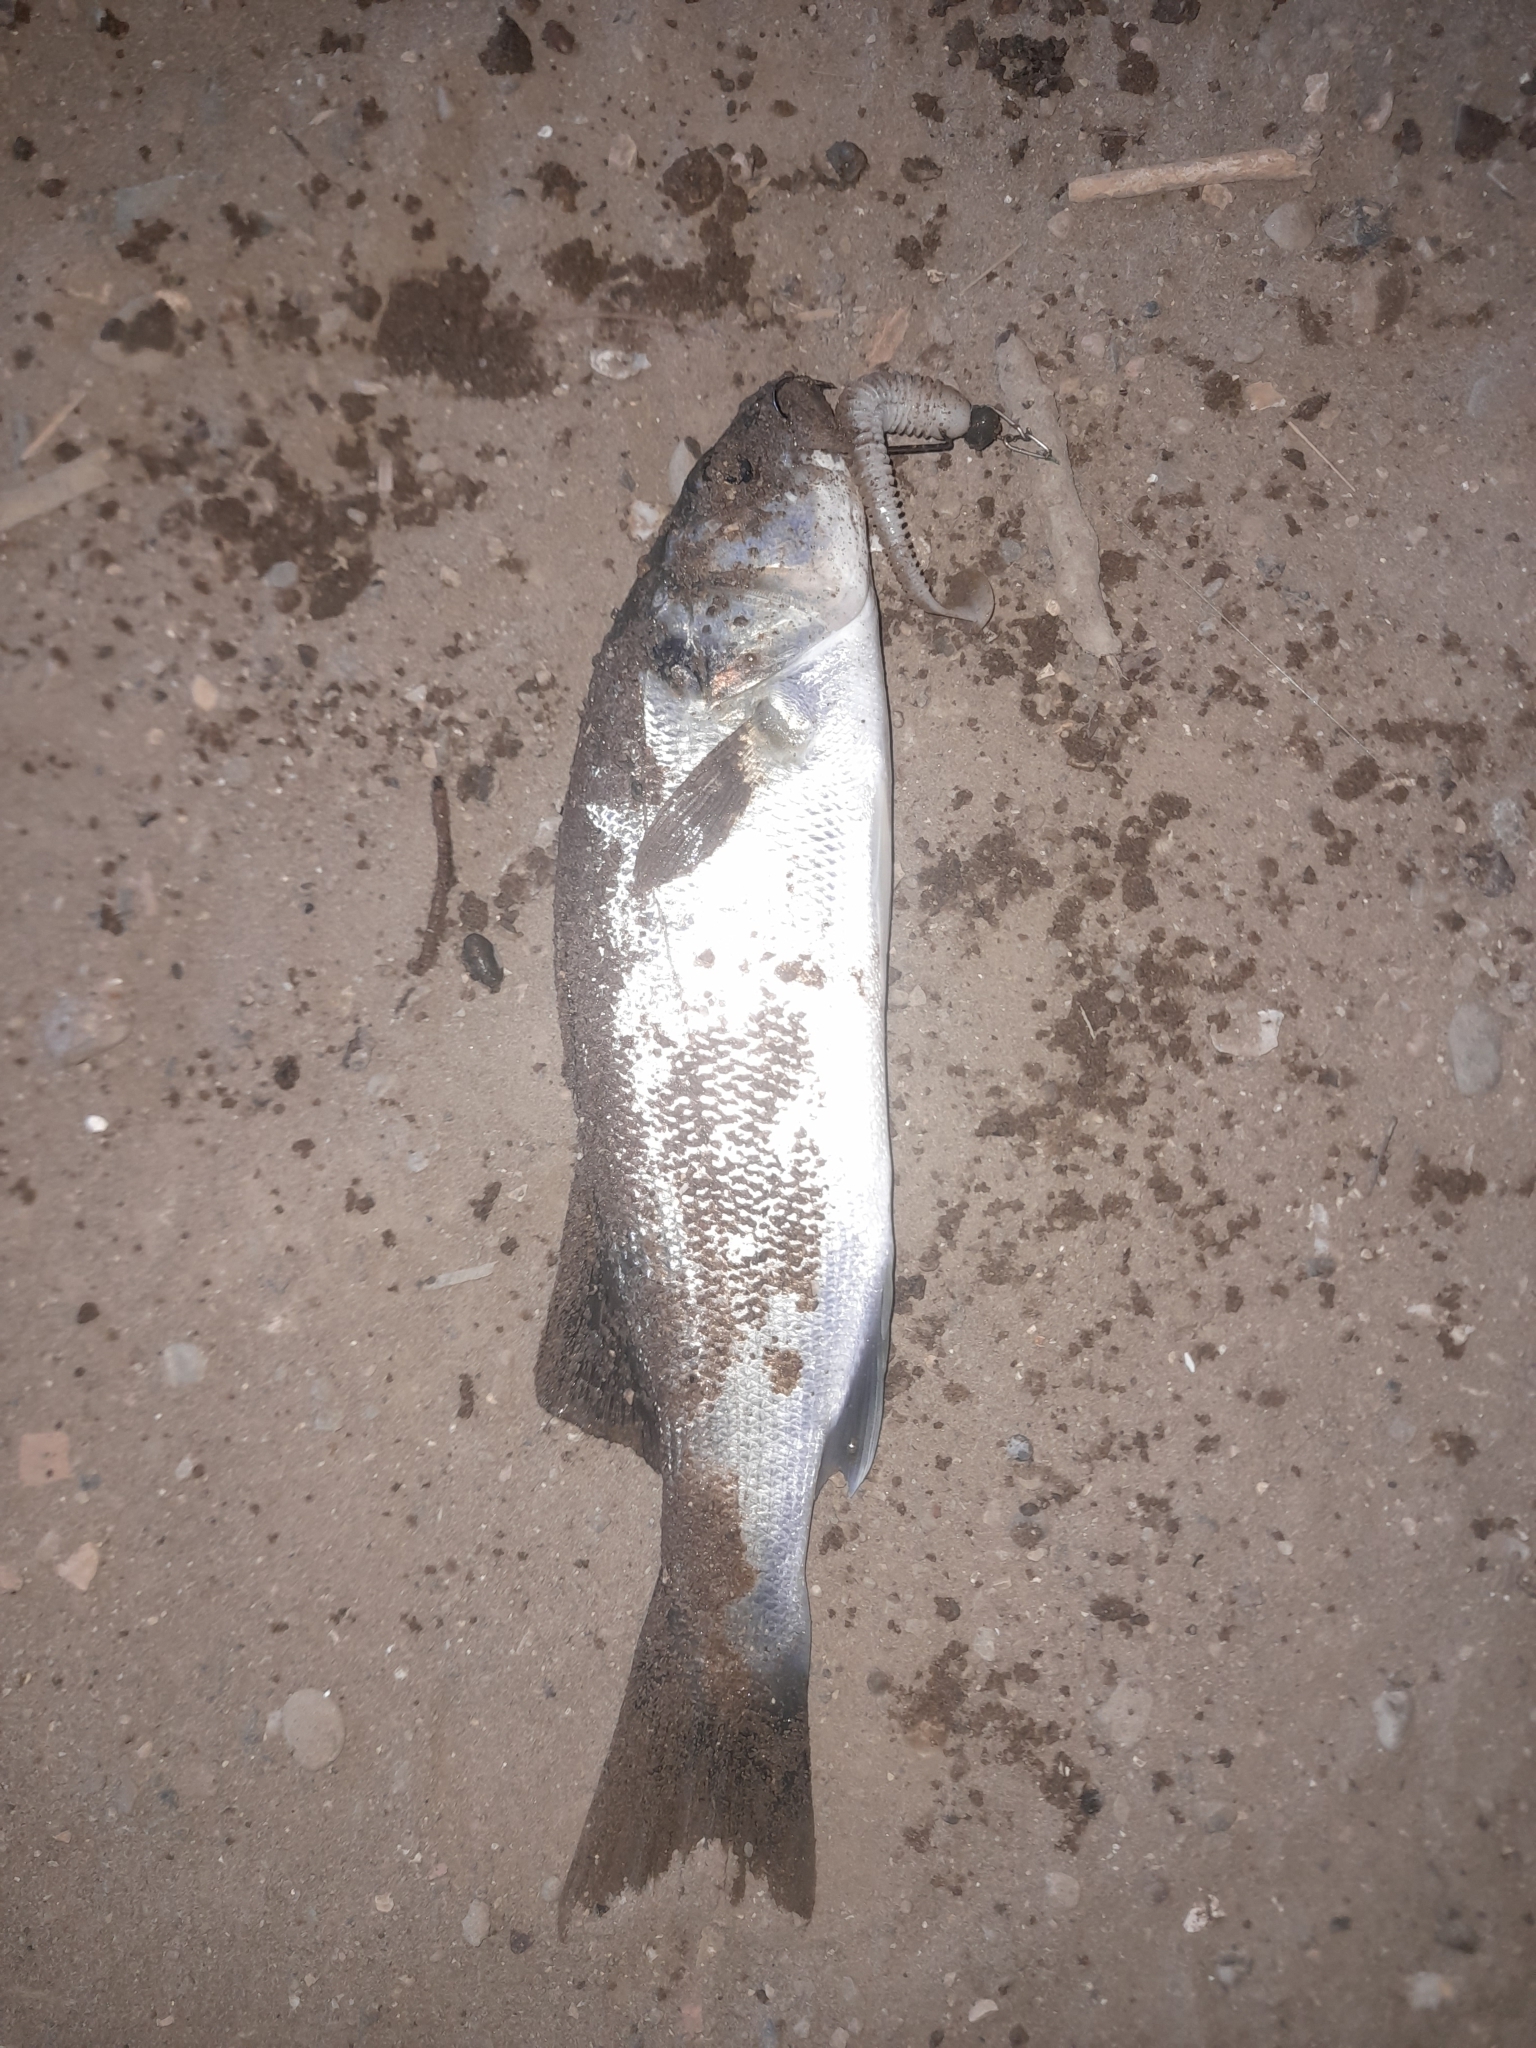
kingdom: Animalia
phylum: Chordata
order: Perciformes
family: Moronidae
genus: Dicentrarchus
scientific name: Dicentrarchus labrax
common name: European seabass
